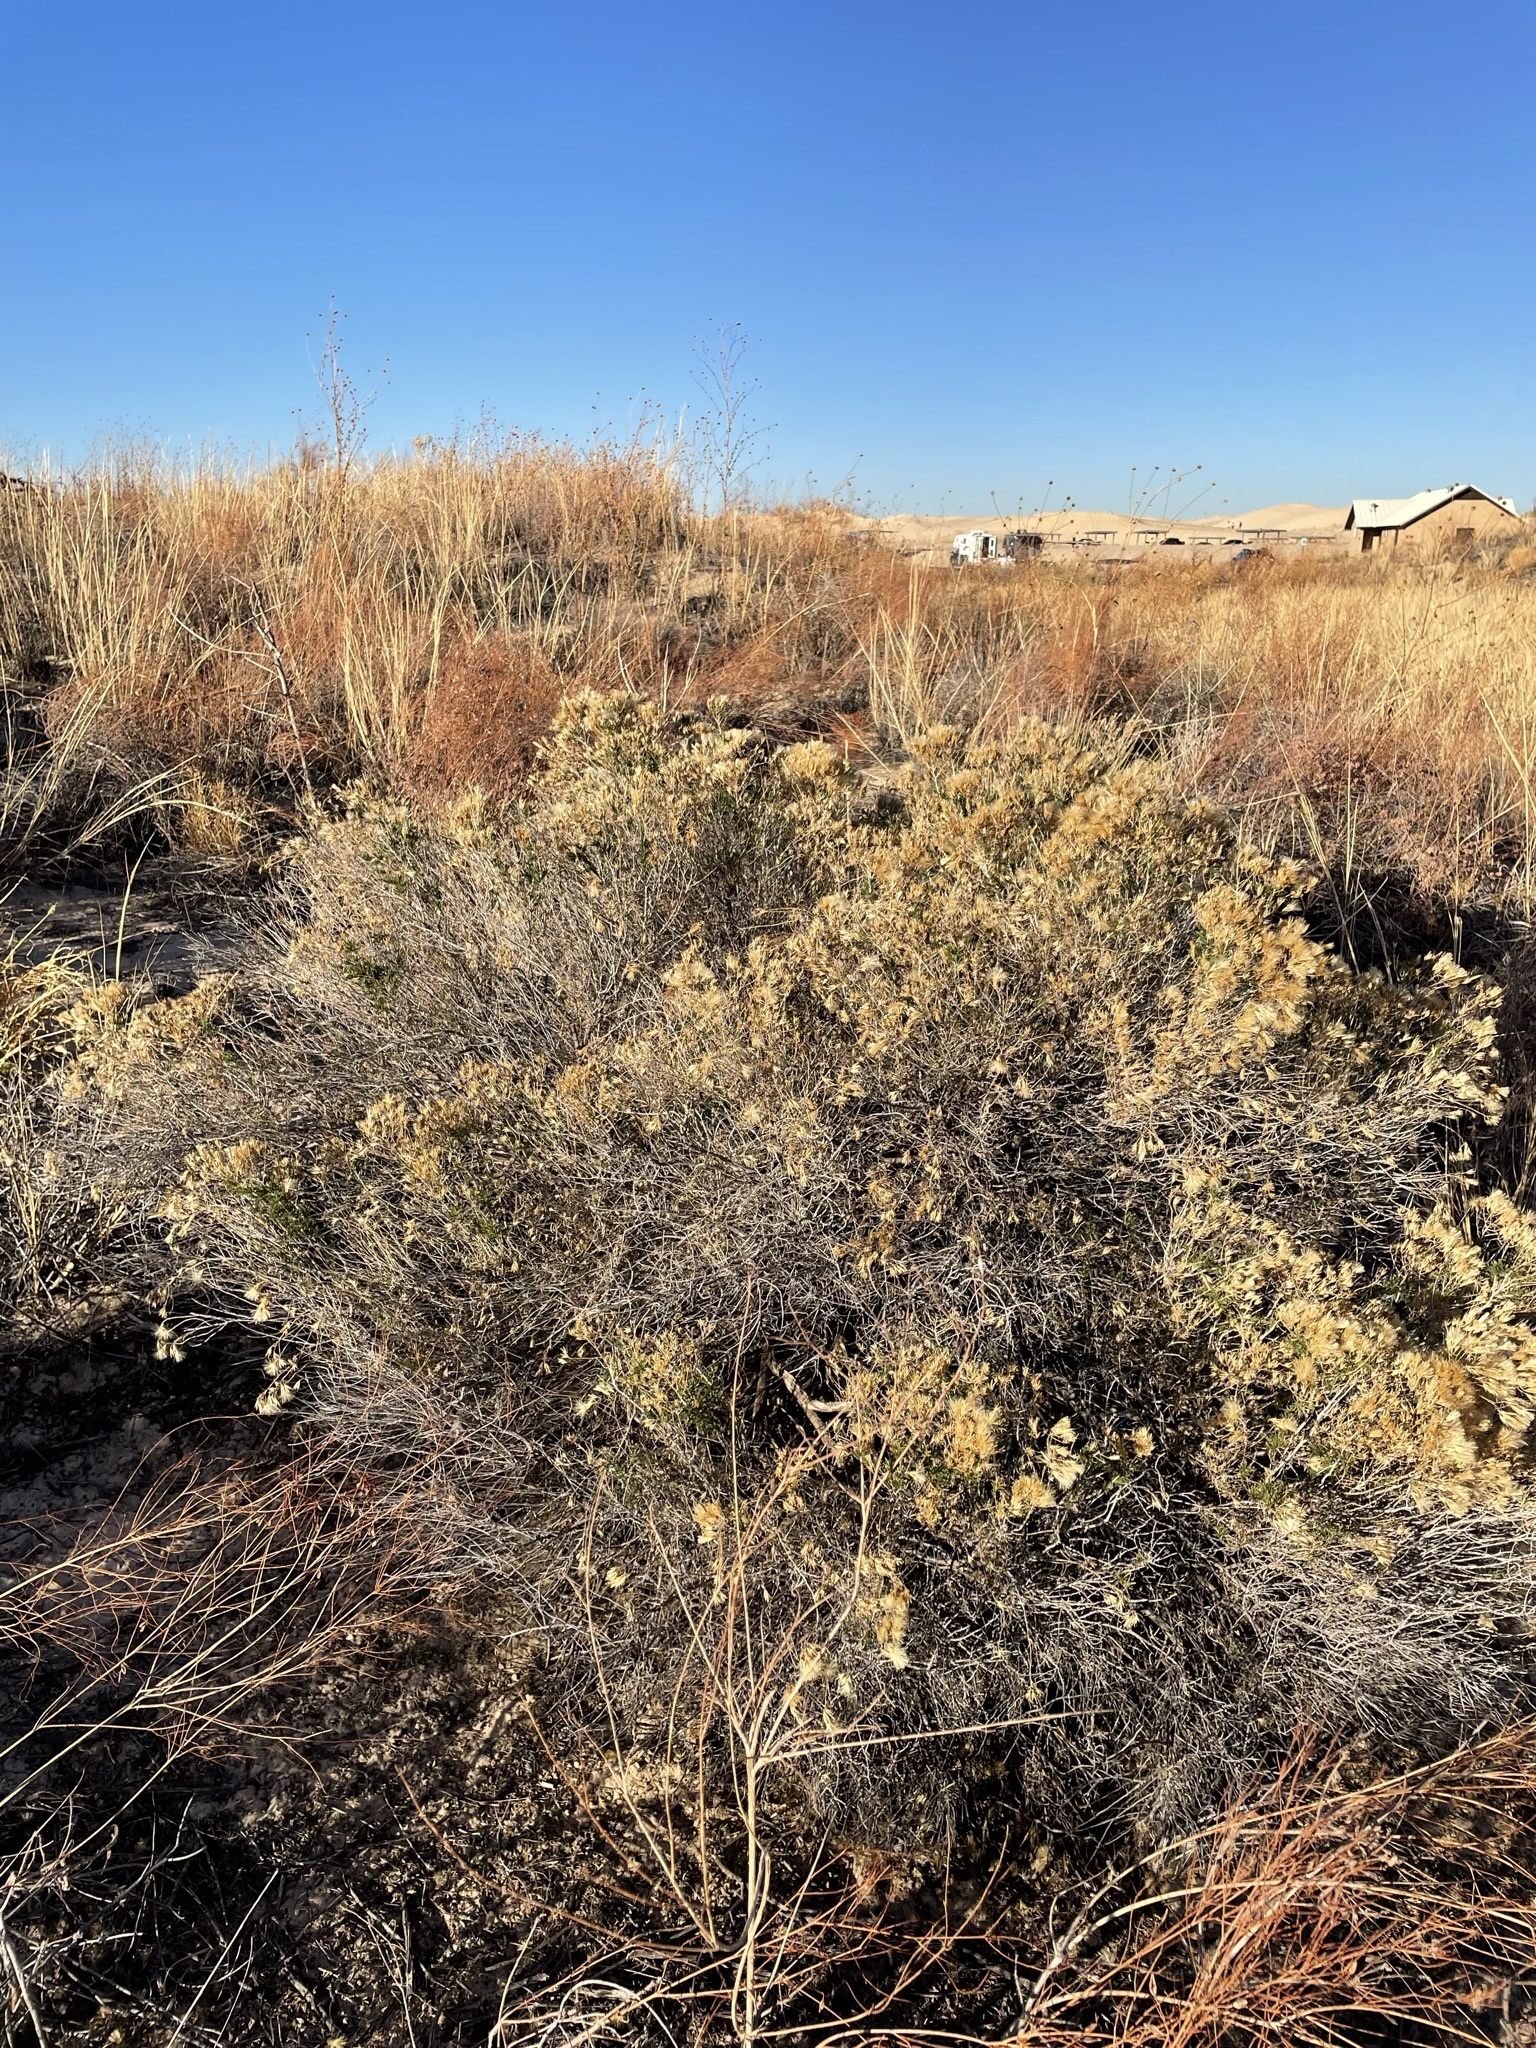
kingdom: Plantae
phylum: Tracheophyta
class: Magnoliopsida
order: Asterales
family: Asteraceae
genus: Lorandersonia
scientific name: Lorandersonia pulchella
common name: Southwestern rabbitbrush
